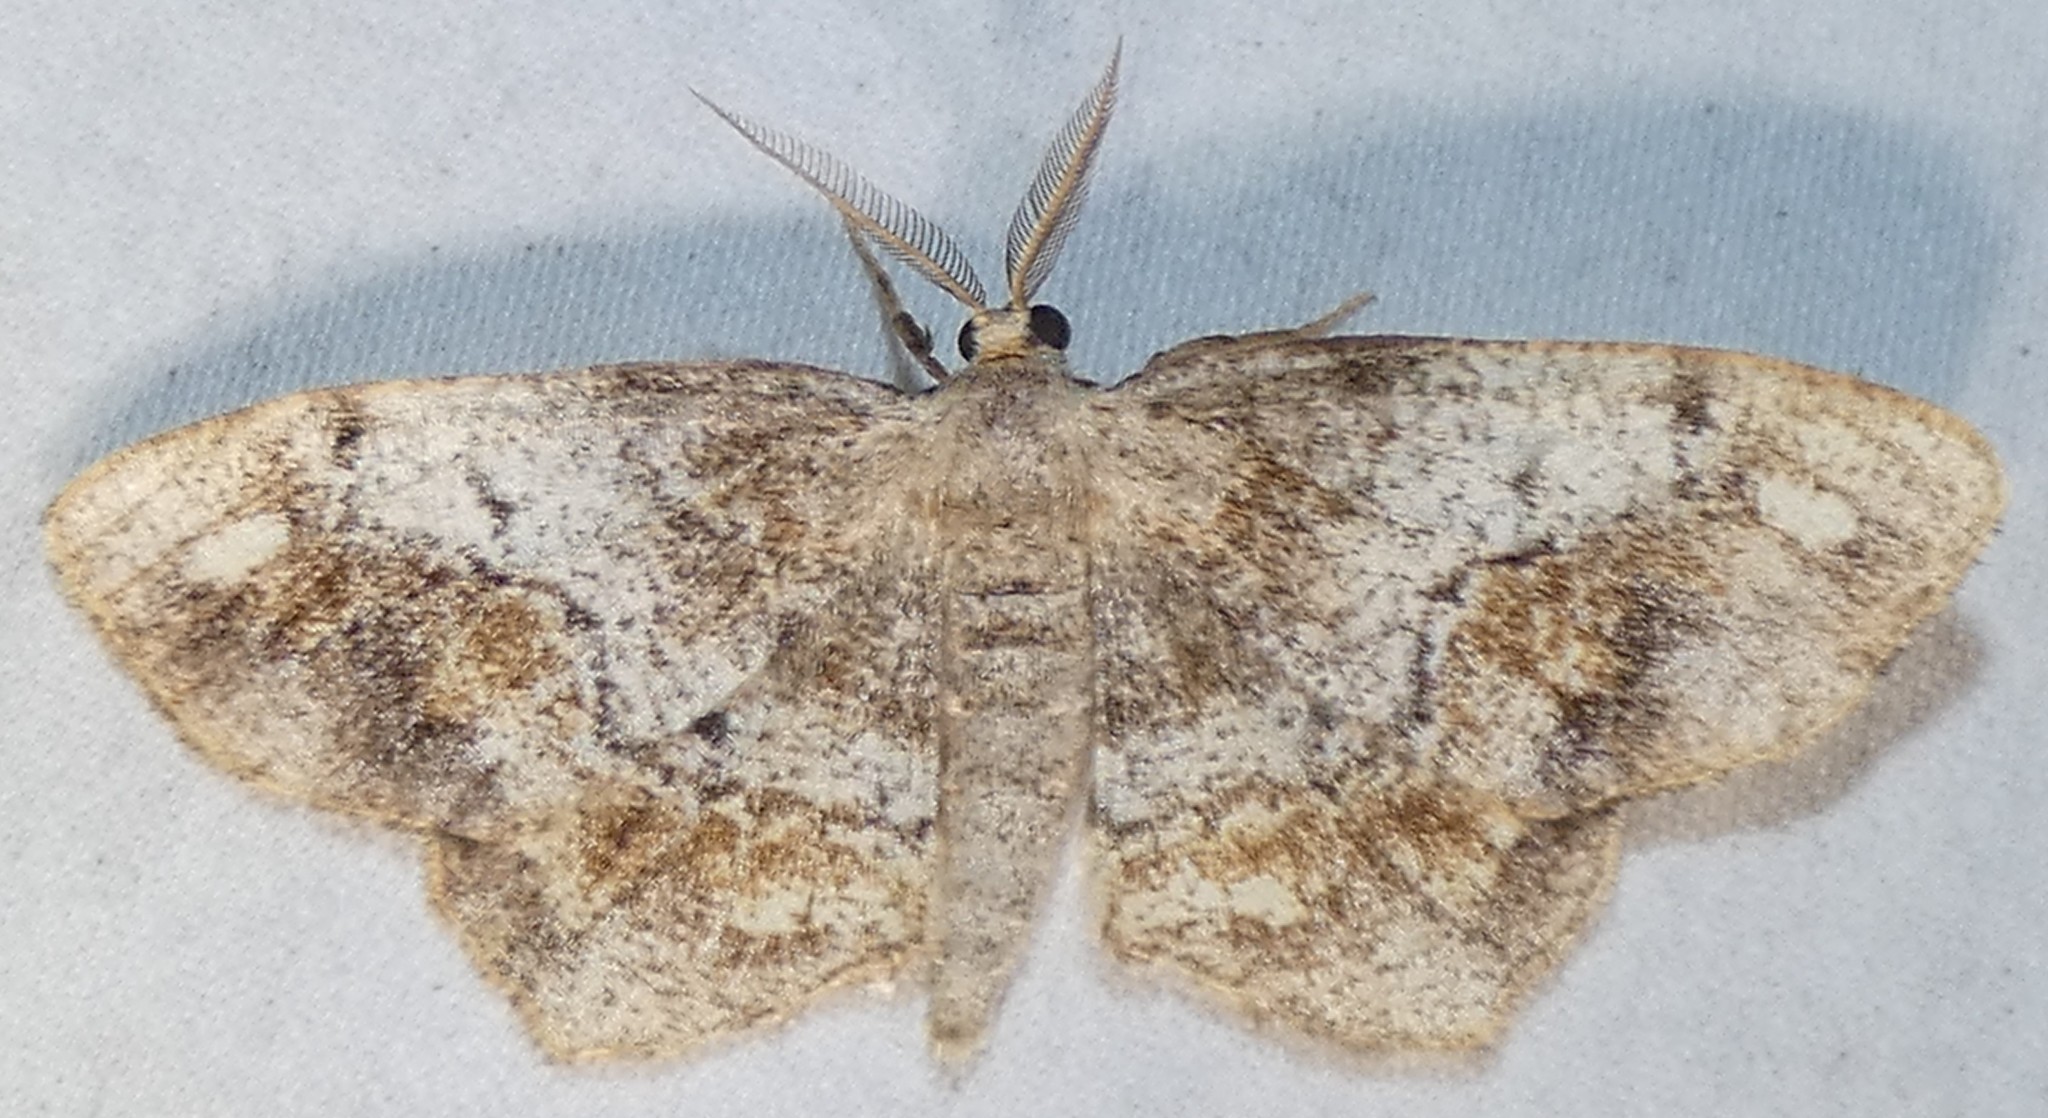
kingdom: Animalia
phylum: Arthropoda
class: Insecta
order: Lepidoptera
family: Geometridae
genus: Hypagyrtis
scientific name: Hypagyrtis unipunctata
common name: One-spotted variant
